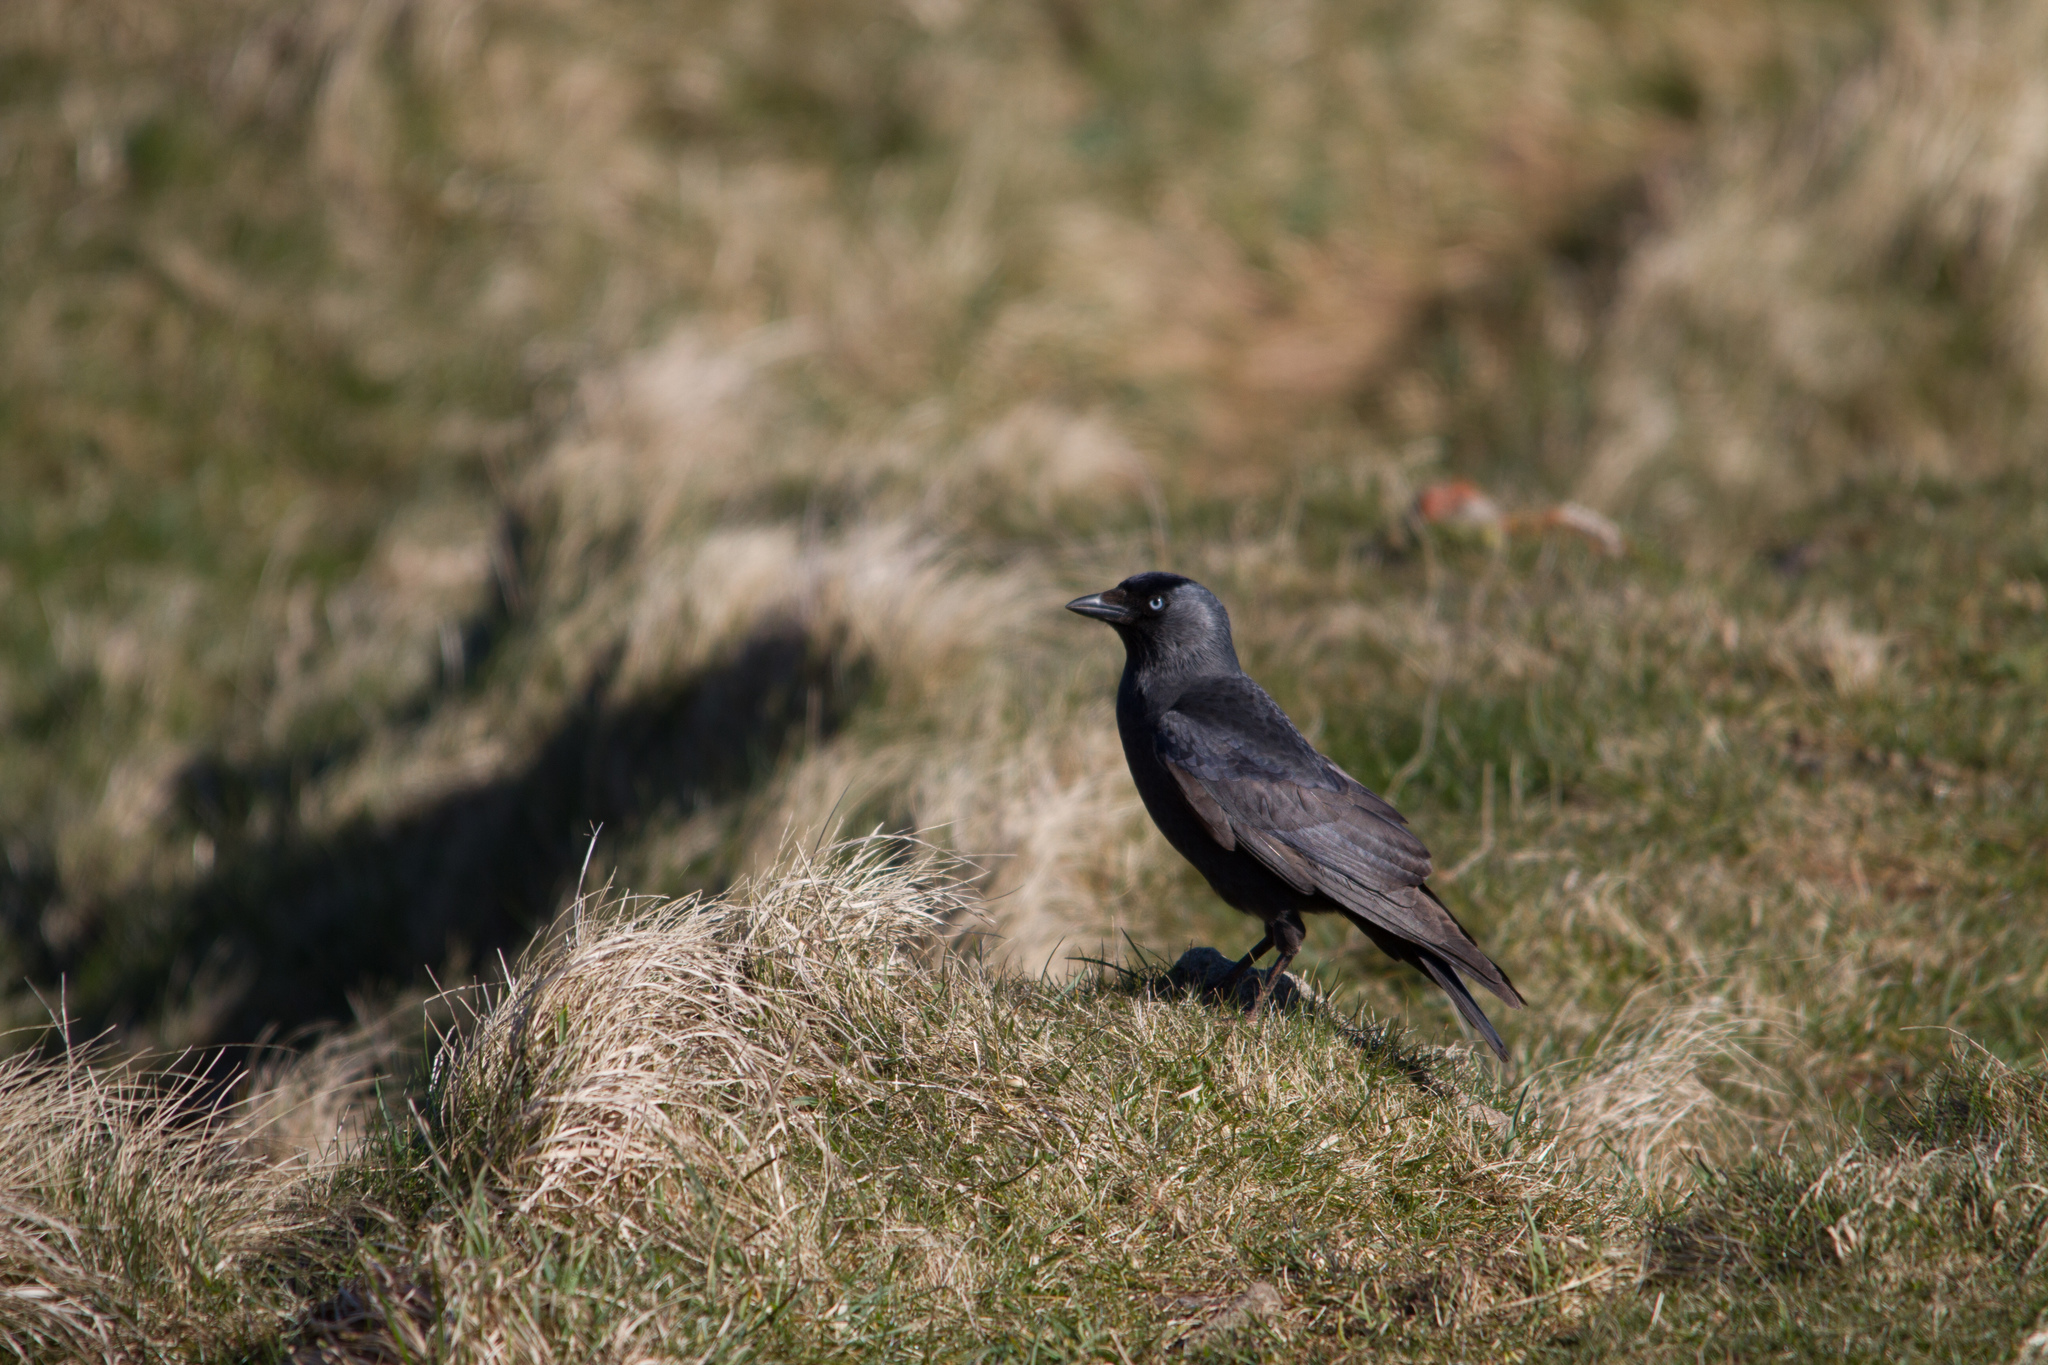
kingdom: Animalia
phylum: Chordata
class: Aves
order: Passeriformes
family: Corvidae
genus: Coloeus
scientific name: Coloeus monedula
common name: Western jackdaw
